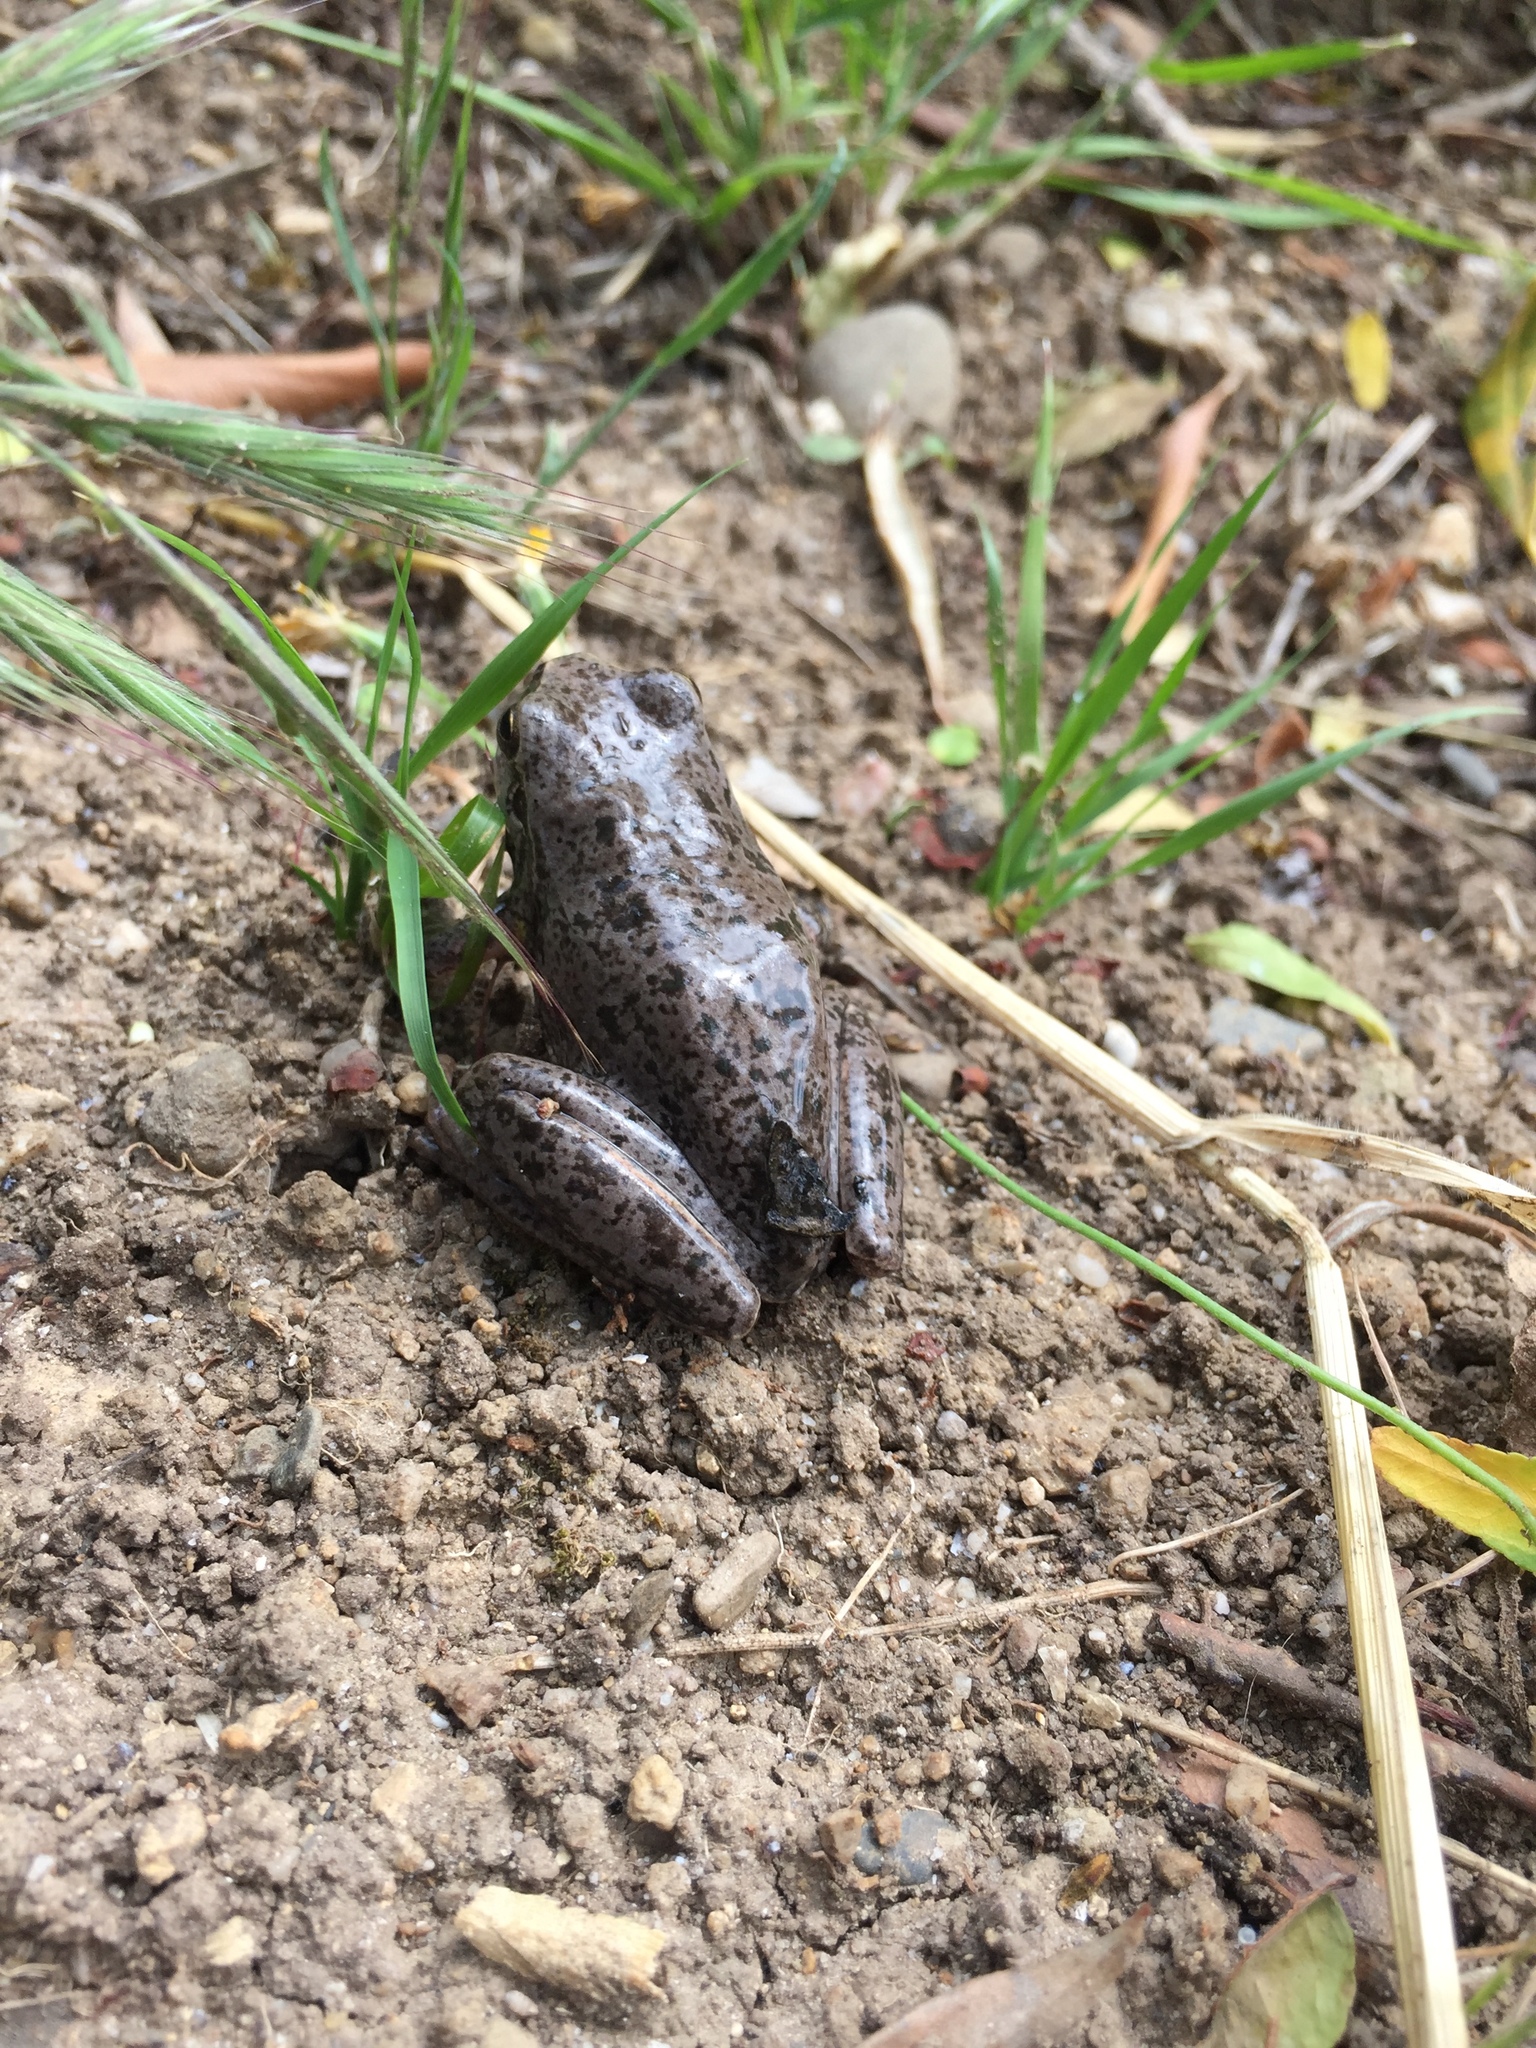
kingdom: Animalia
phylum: Chordata
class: Amphibia
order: Anura
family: Hylidae
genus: Hyla
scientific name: Hyla meridionalis
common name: Stripeless tree frog
